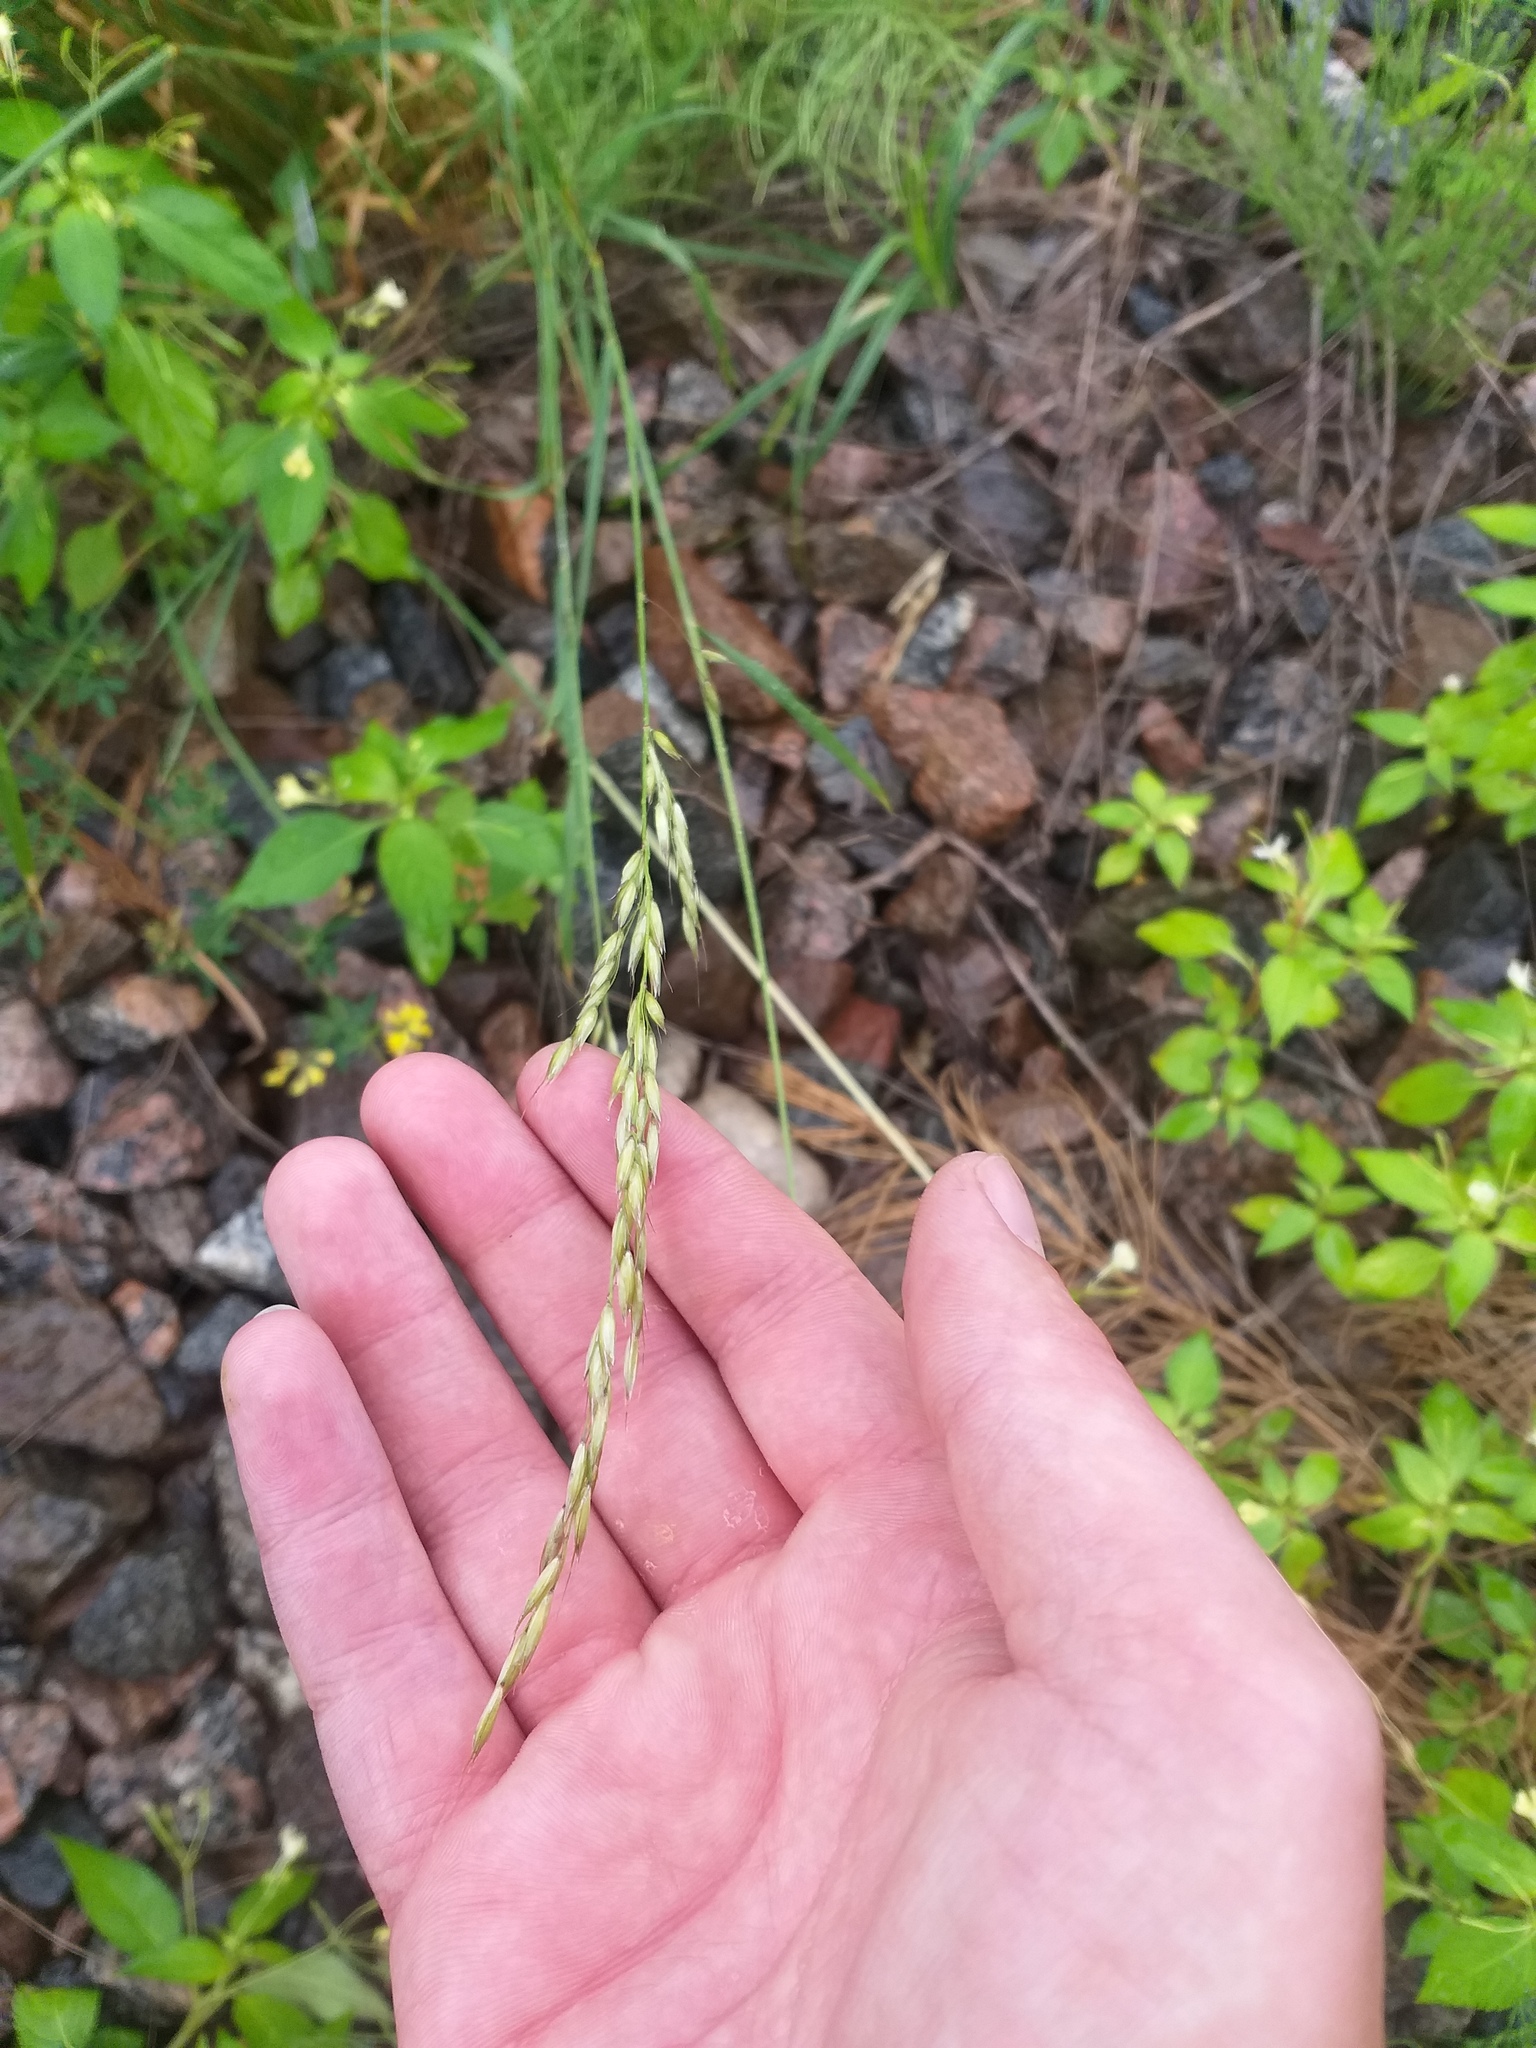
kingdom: Plantae
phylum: Tracheophyta
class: Liliopsida
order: Poales
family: Poaceae
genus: Arrhenatherum
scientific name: Arrhenatherum elatius
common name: Tall oatgrass
